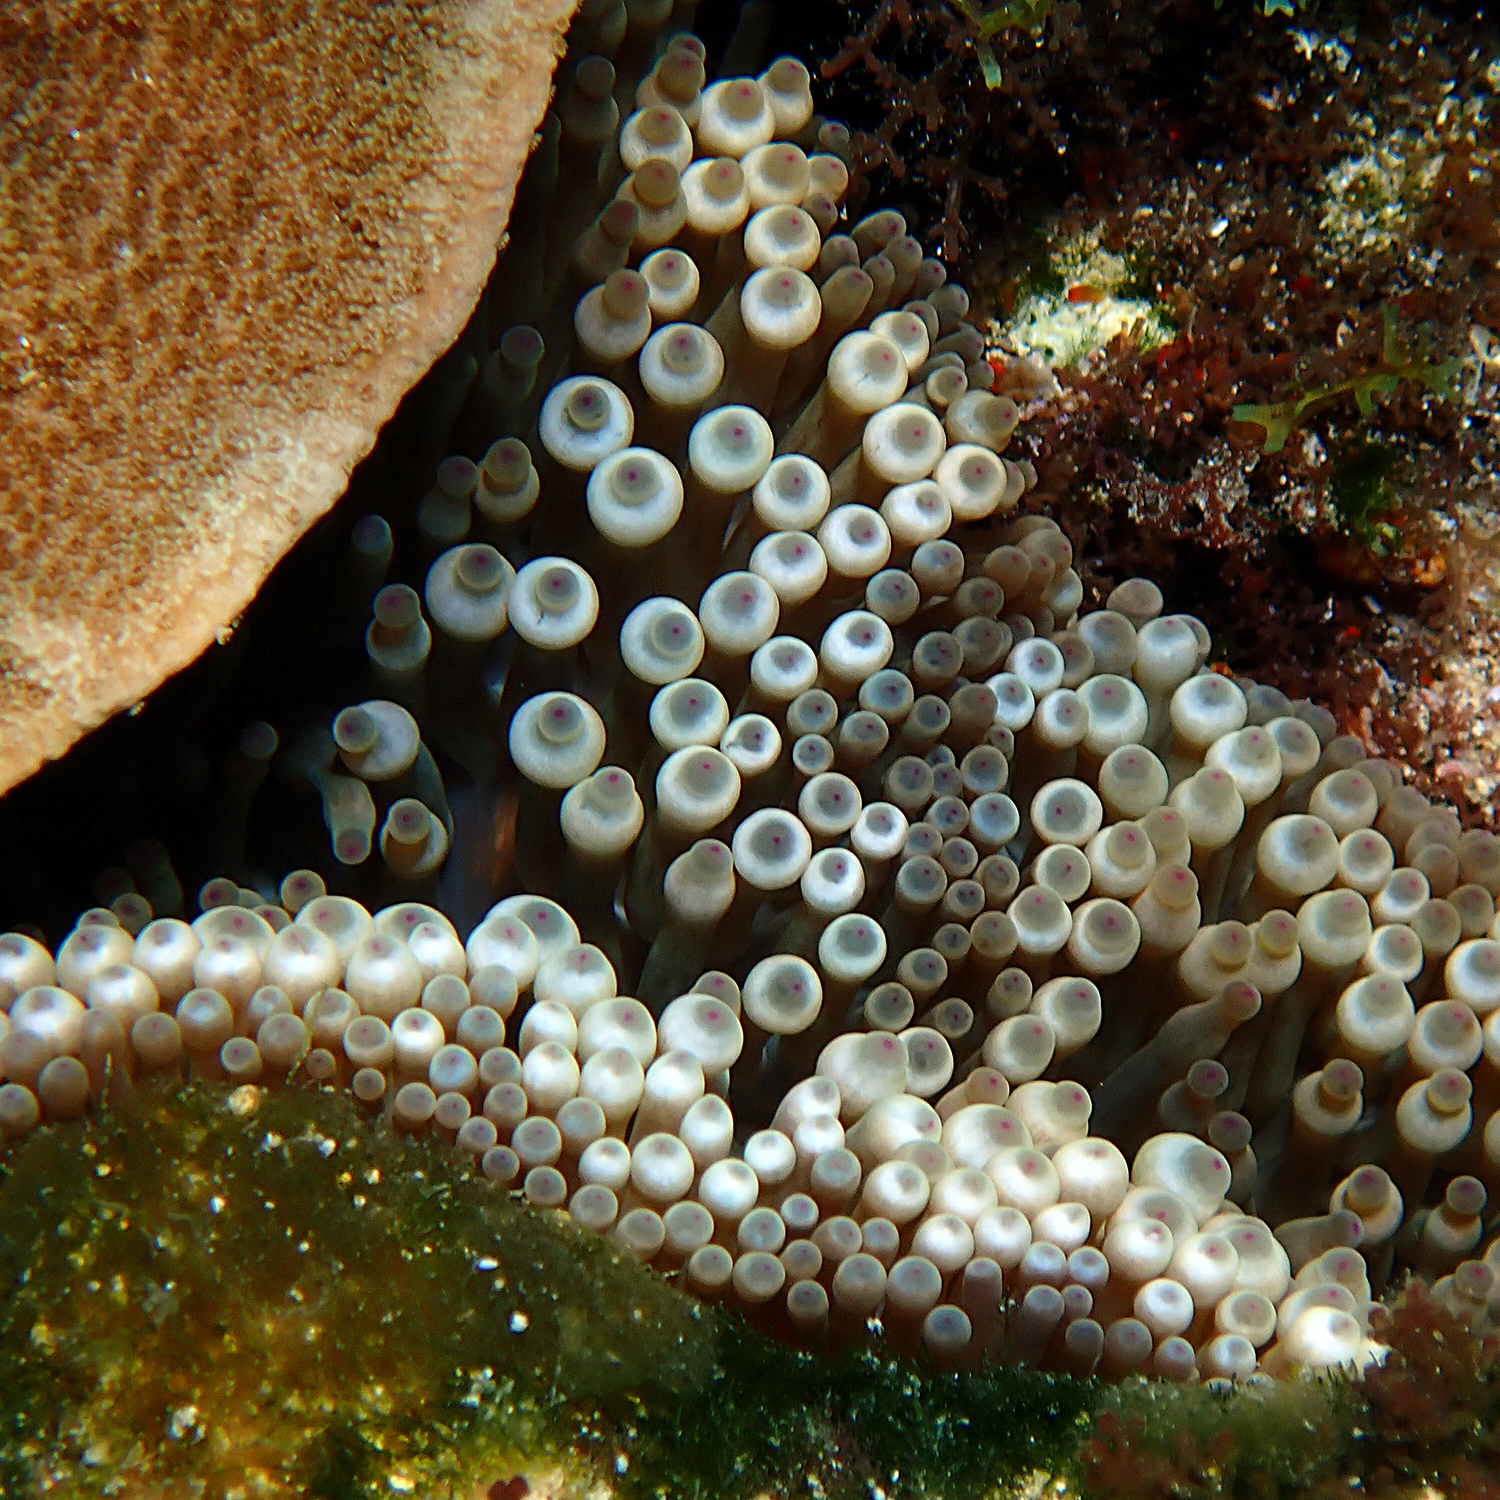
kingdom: Animalia
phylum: Cnidaria
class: Anthozoa
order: Actiniaria
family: Actiniidae
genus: Entacmaea
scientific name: Entacmaea quadricolor
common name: Bulb tentacle sea anemone
